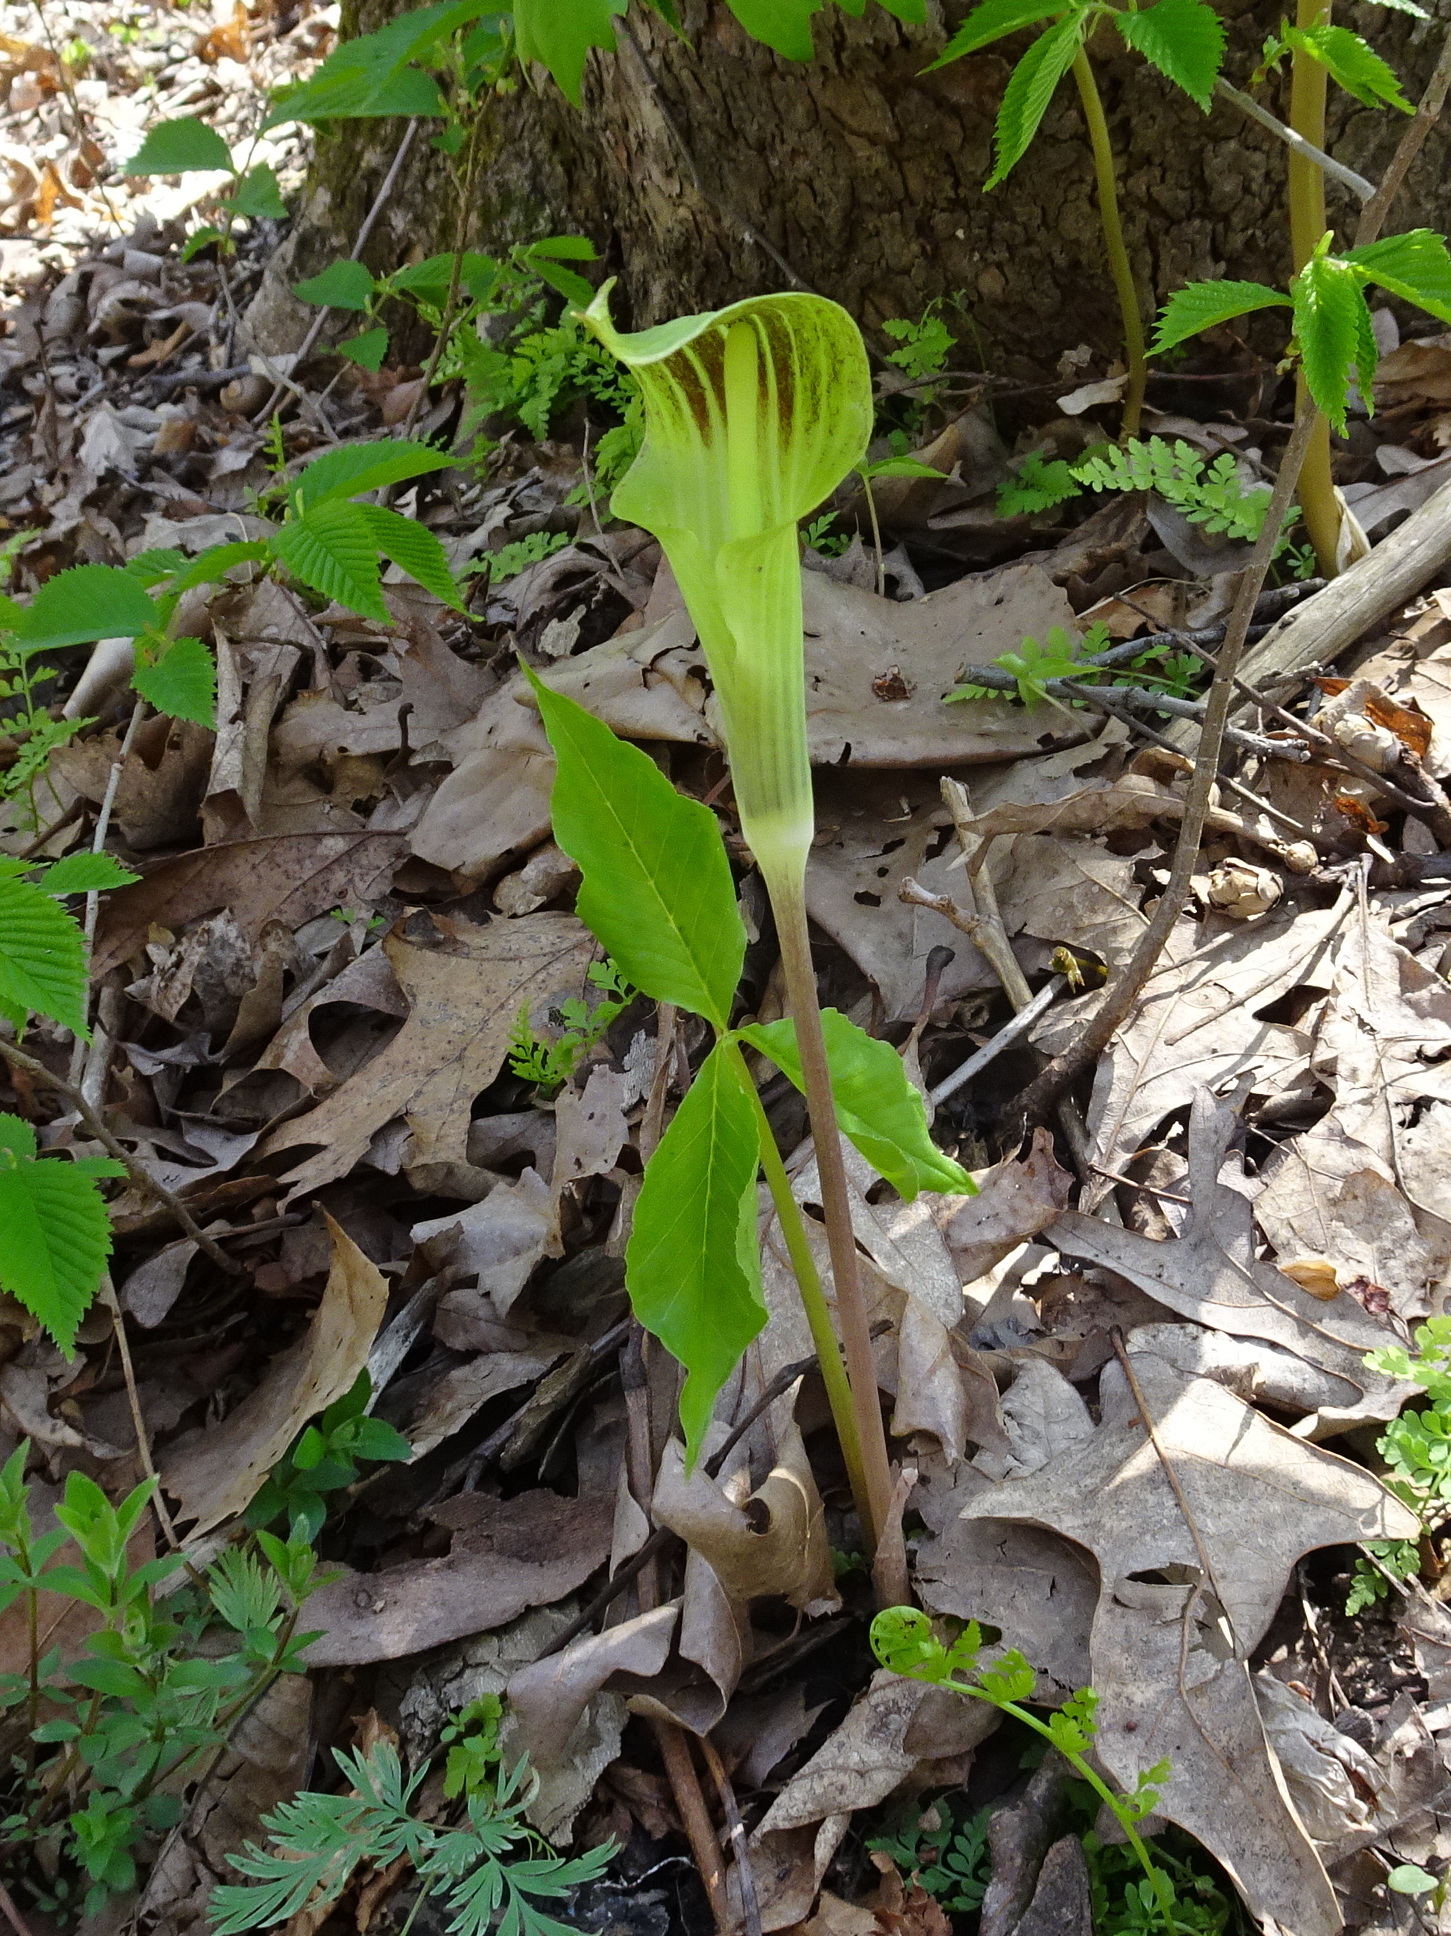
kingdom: Plantae
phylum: Tracheophyta
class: Liliopsida
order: Alismatales
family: Araceae
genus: Arisaema
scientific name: Arisaema triphyllum
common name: Jack-in-the-pulpit
